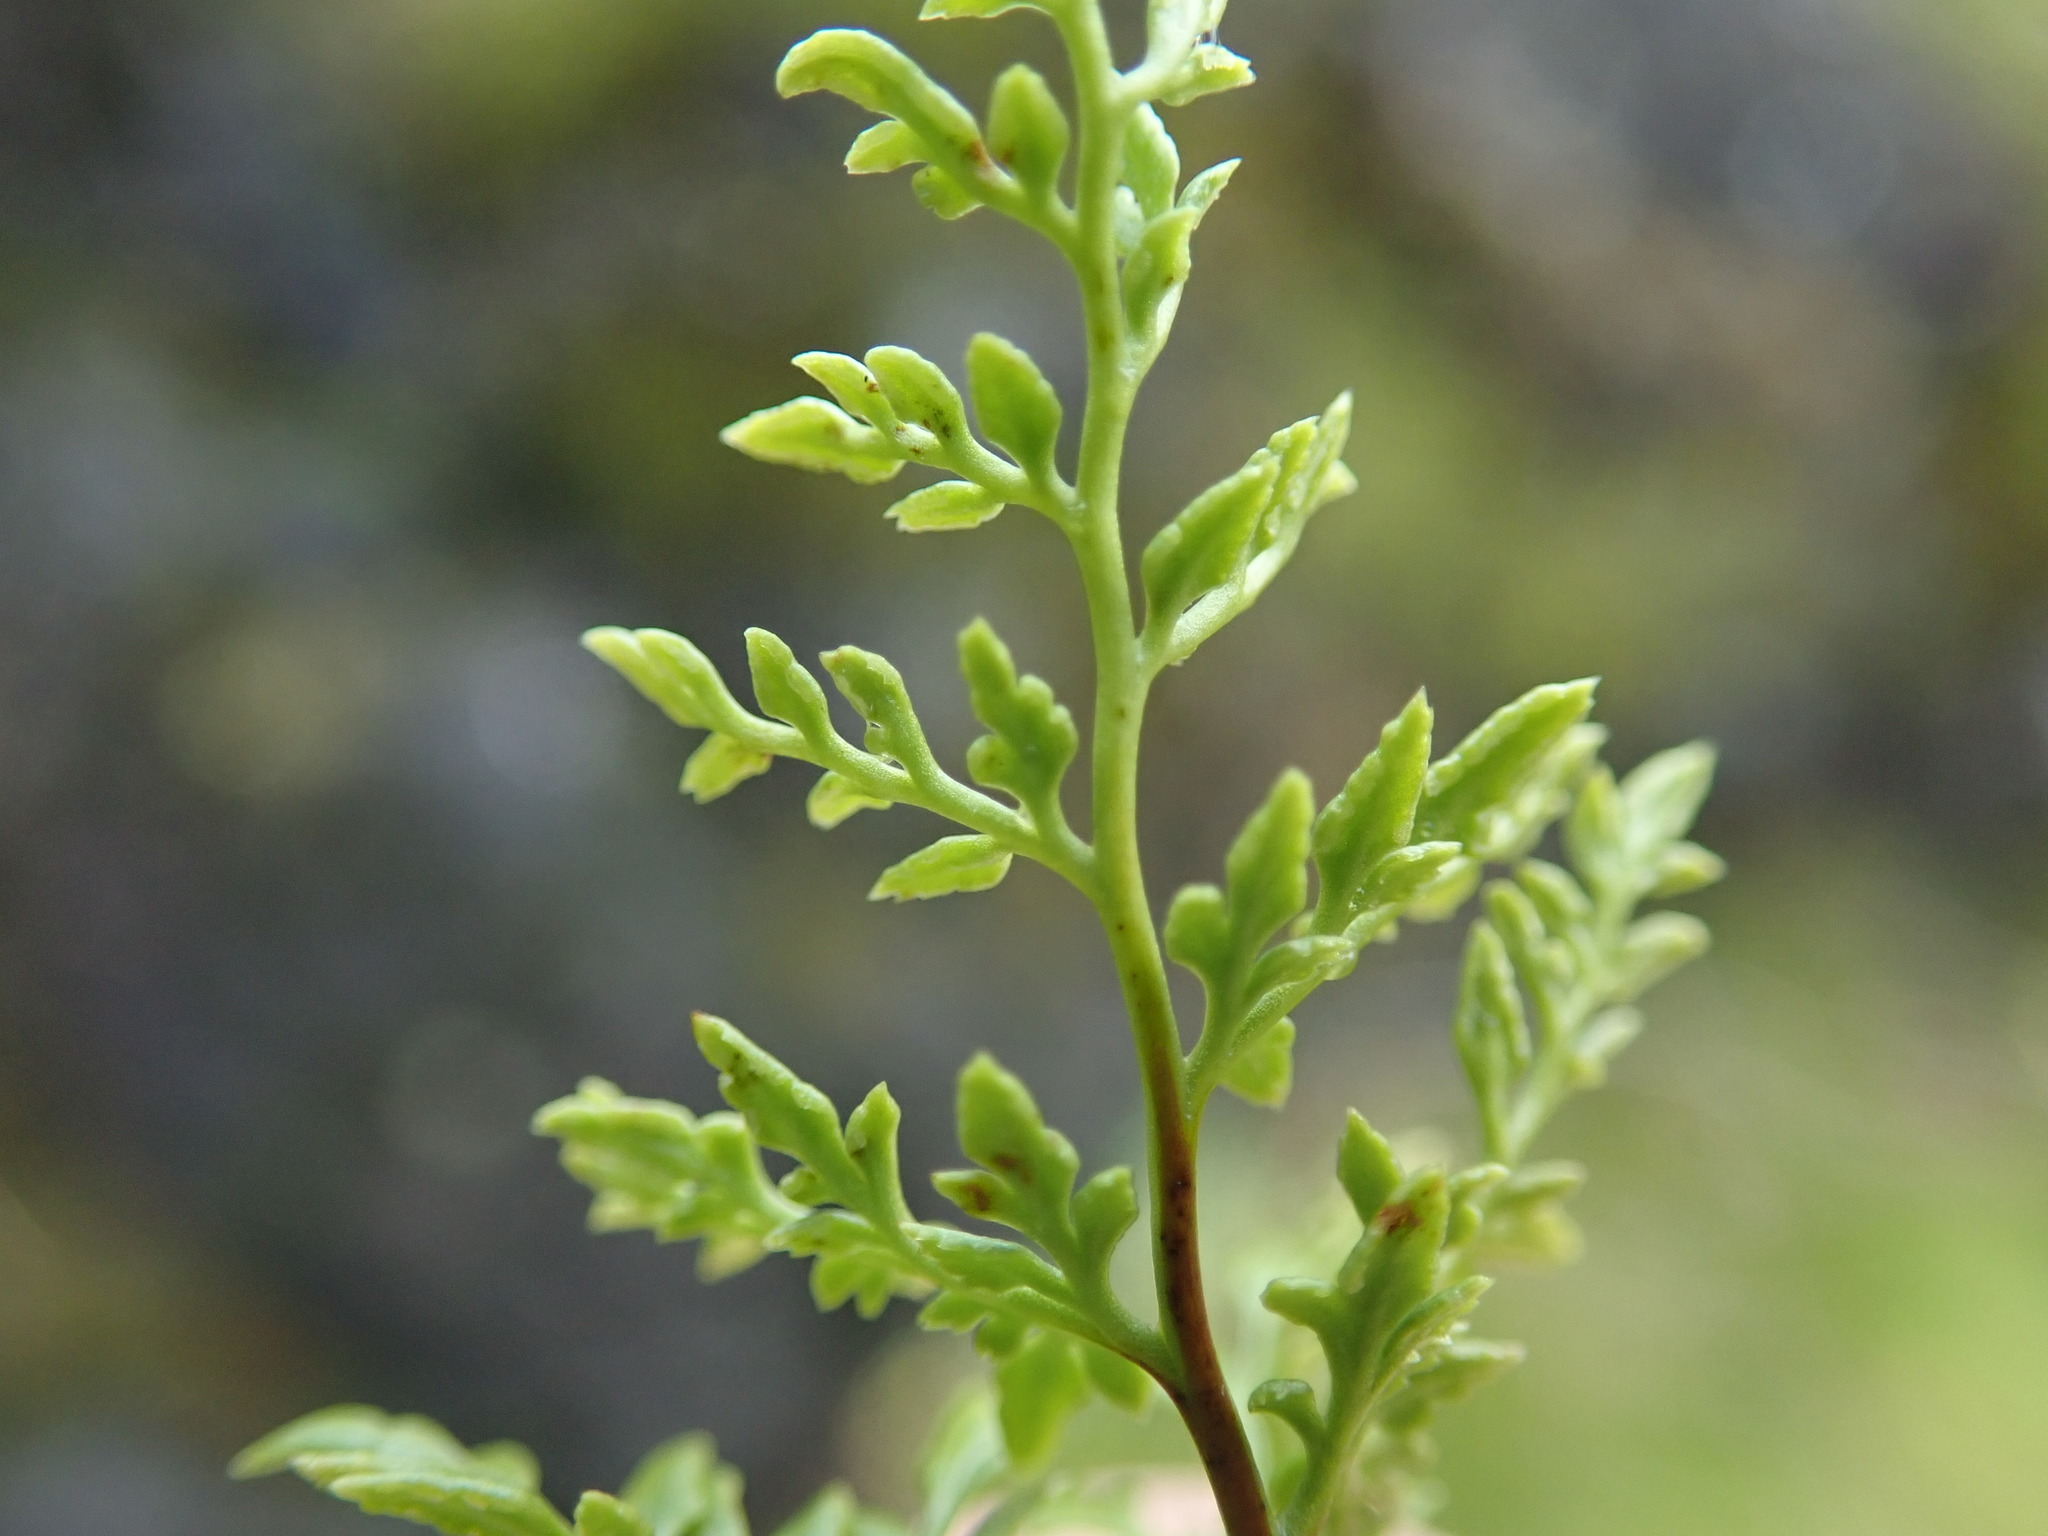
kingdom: Plantae
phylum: Tracheophyta
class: Polypodiopsida
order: Polypodiales
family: Pteridaceae
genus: Aspidotis
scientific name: Aspidotis densa
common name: Indian's dream
